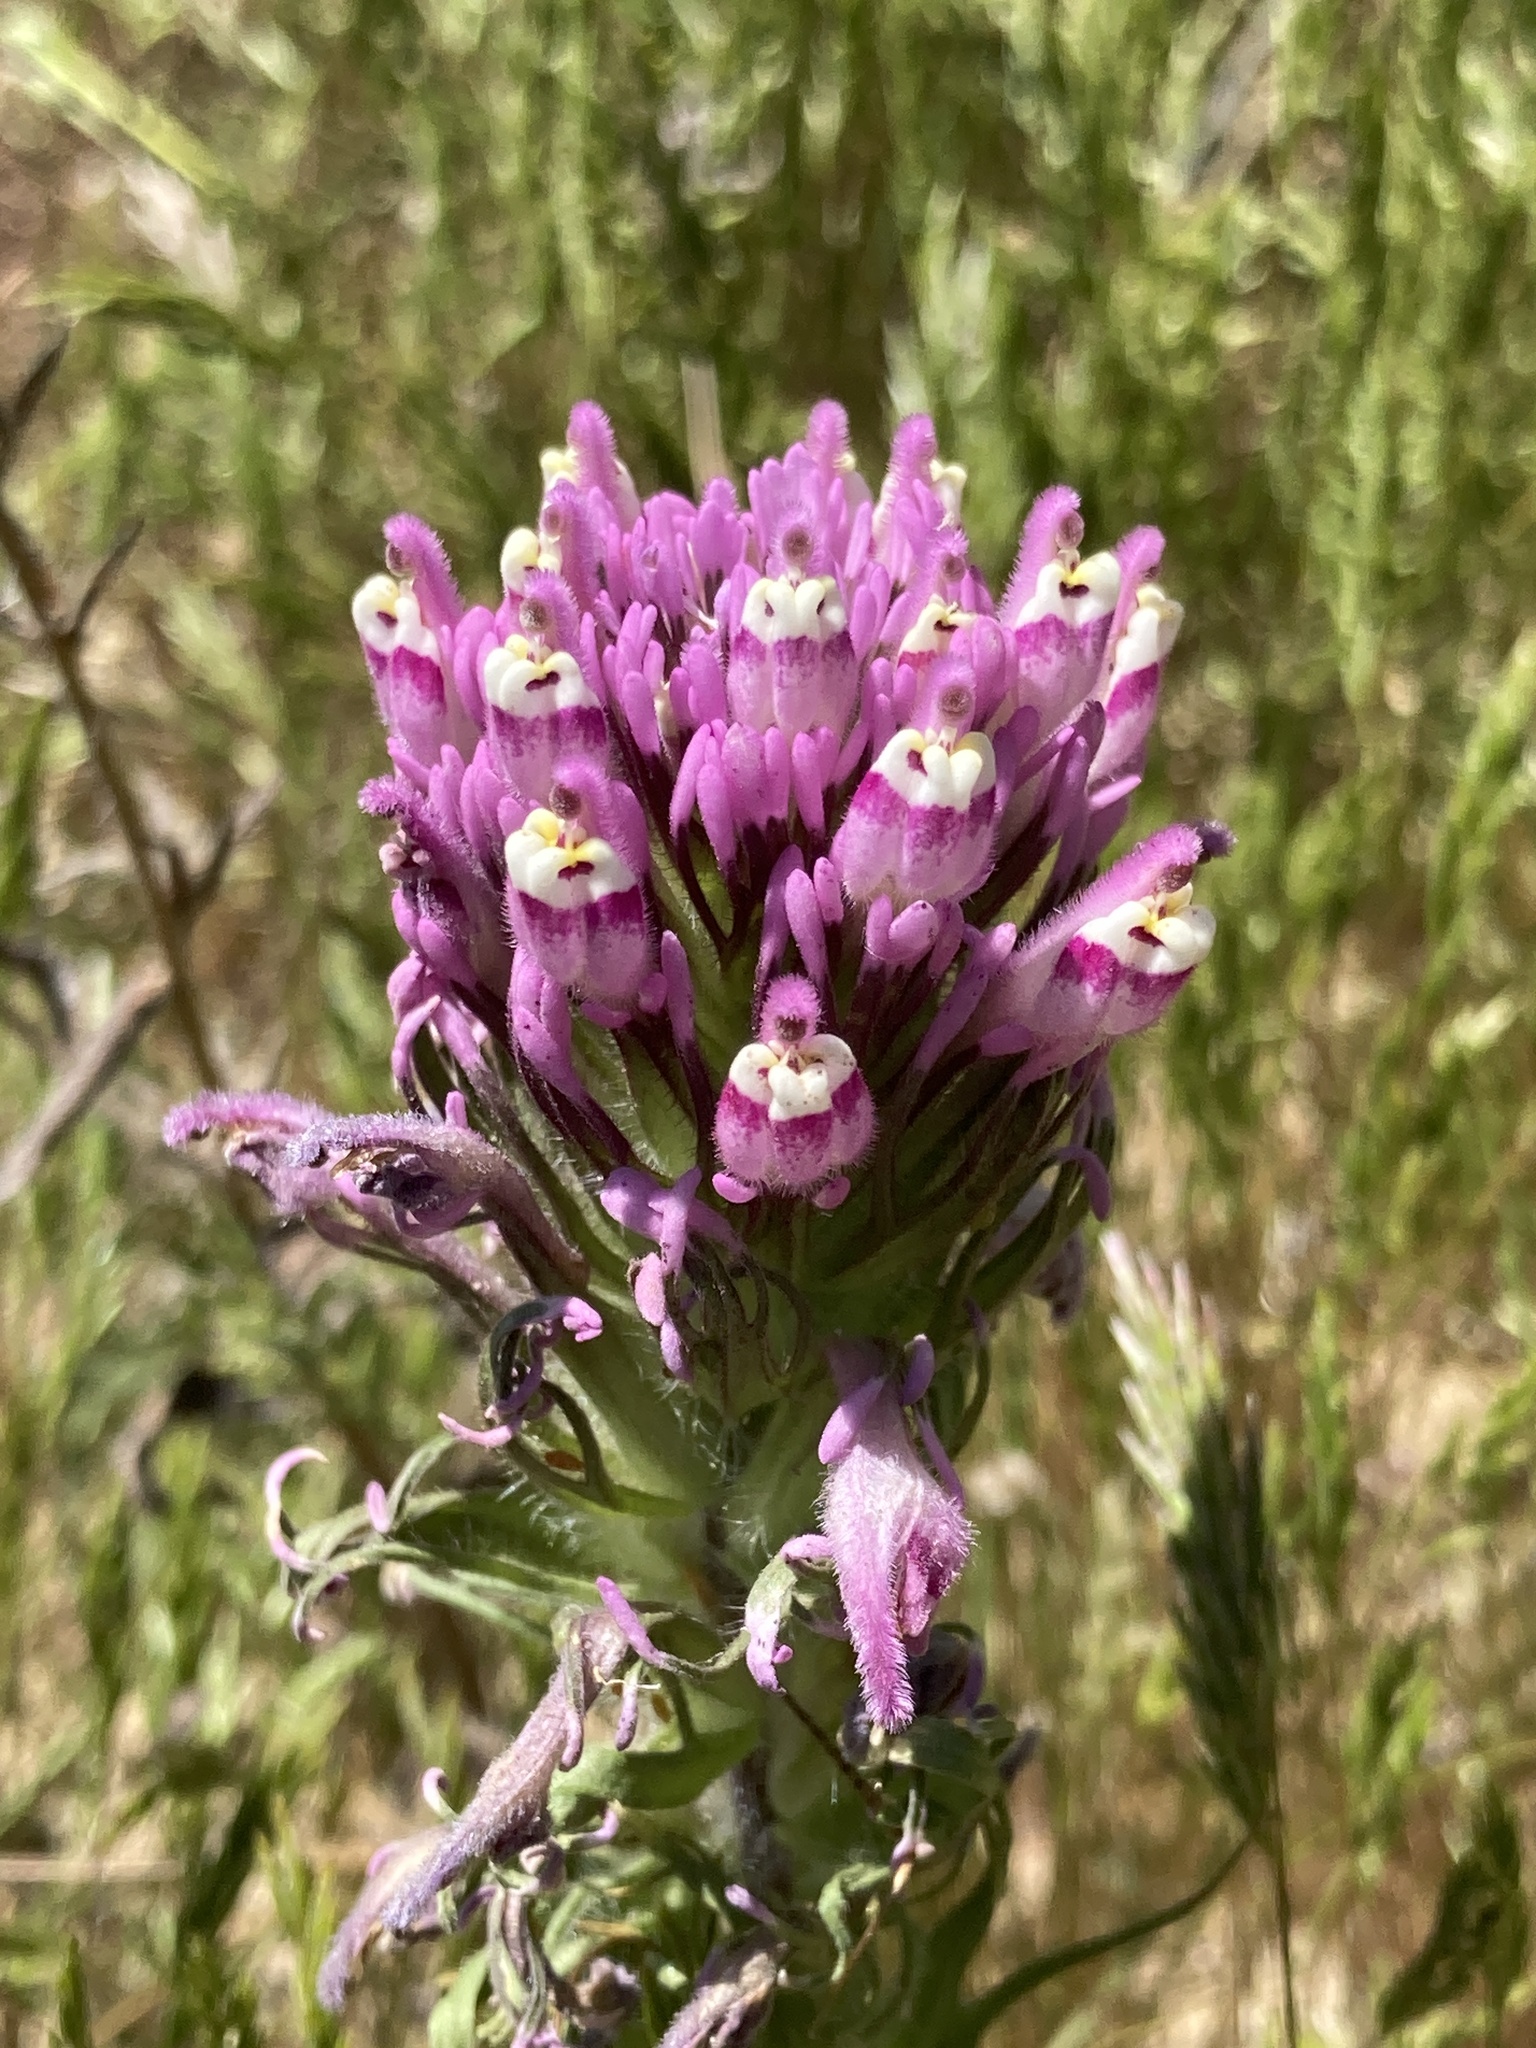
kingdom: Plantae
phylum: Tracheophyta
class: Magnoliopsida
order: Lamiales
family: Orobanchaceae
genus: Castilleja
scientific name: Castilleja exserta
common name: Purple owl-clover
